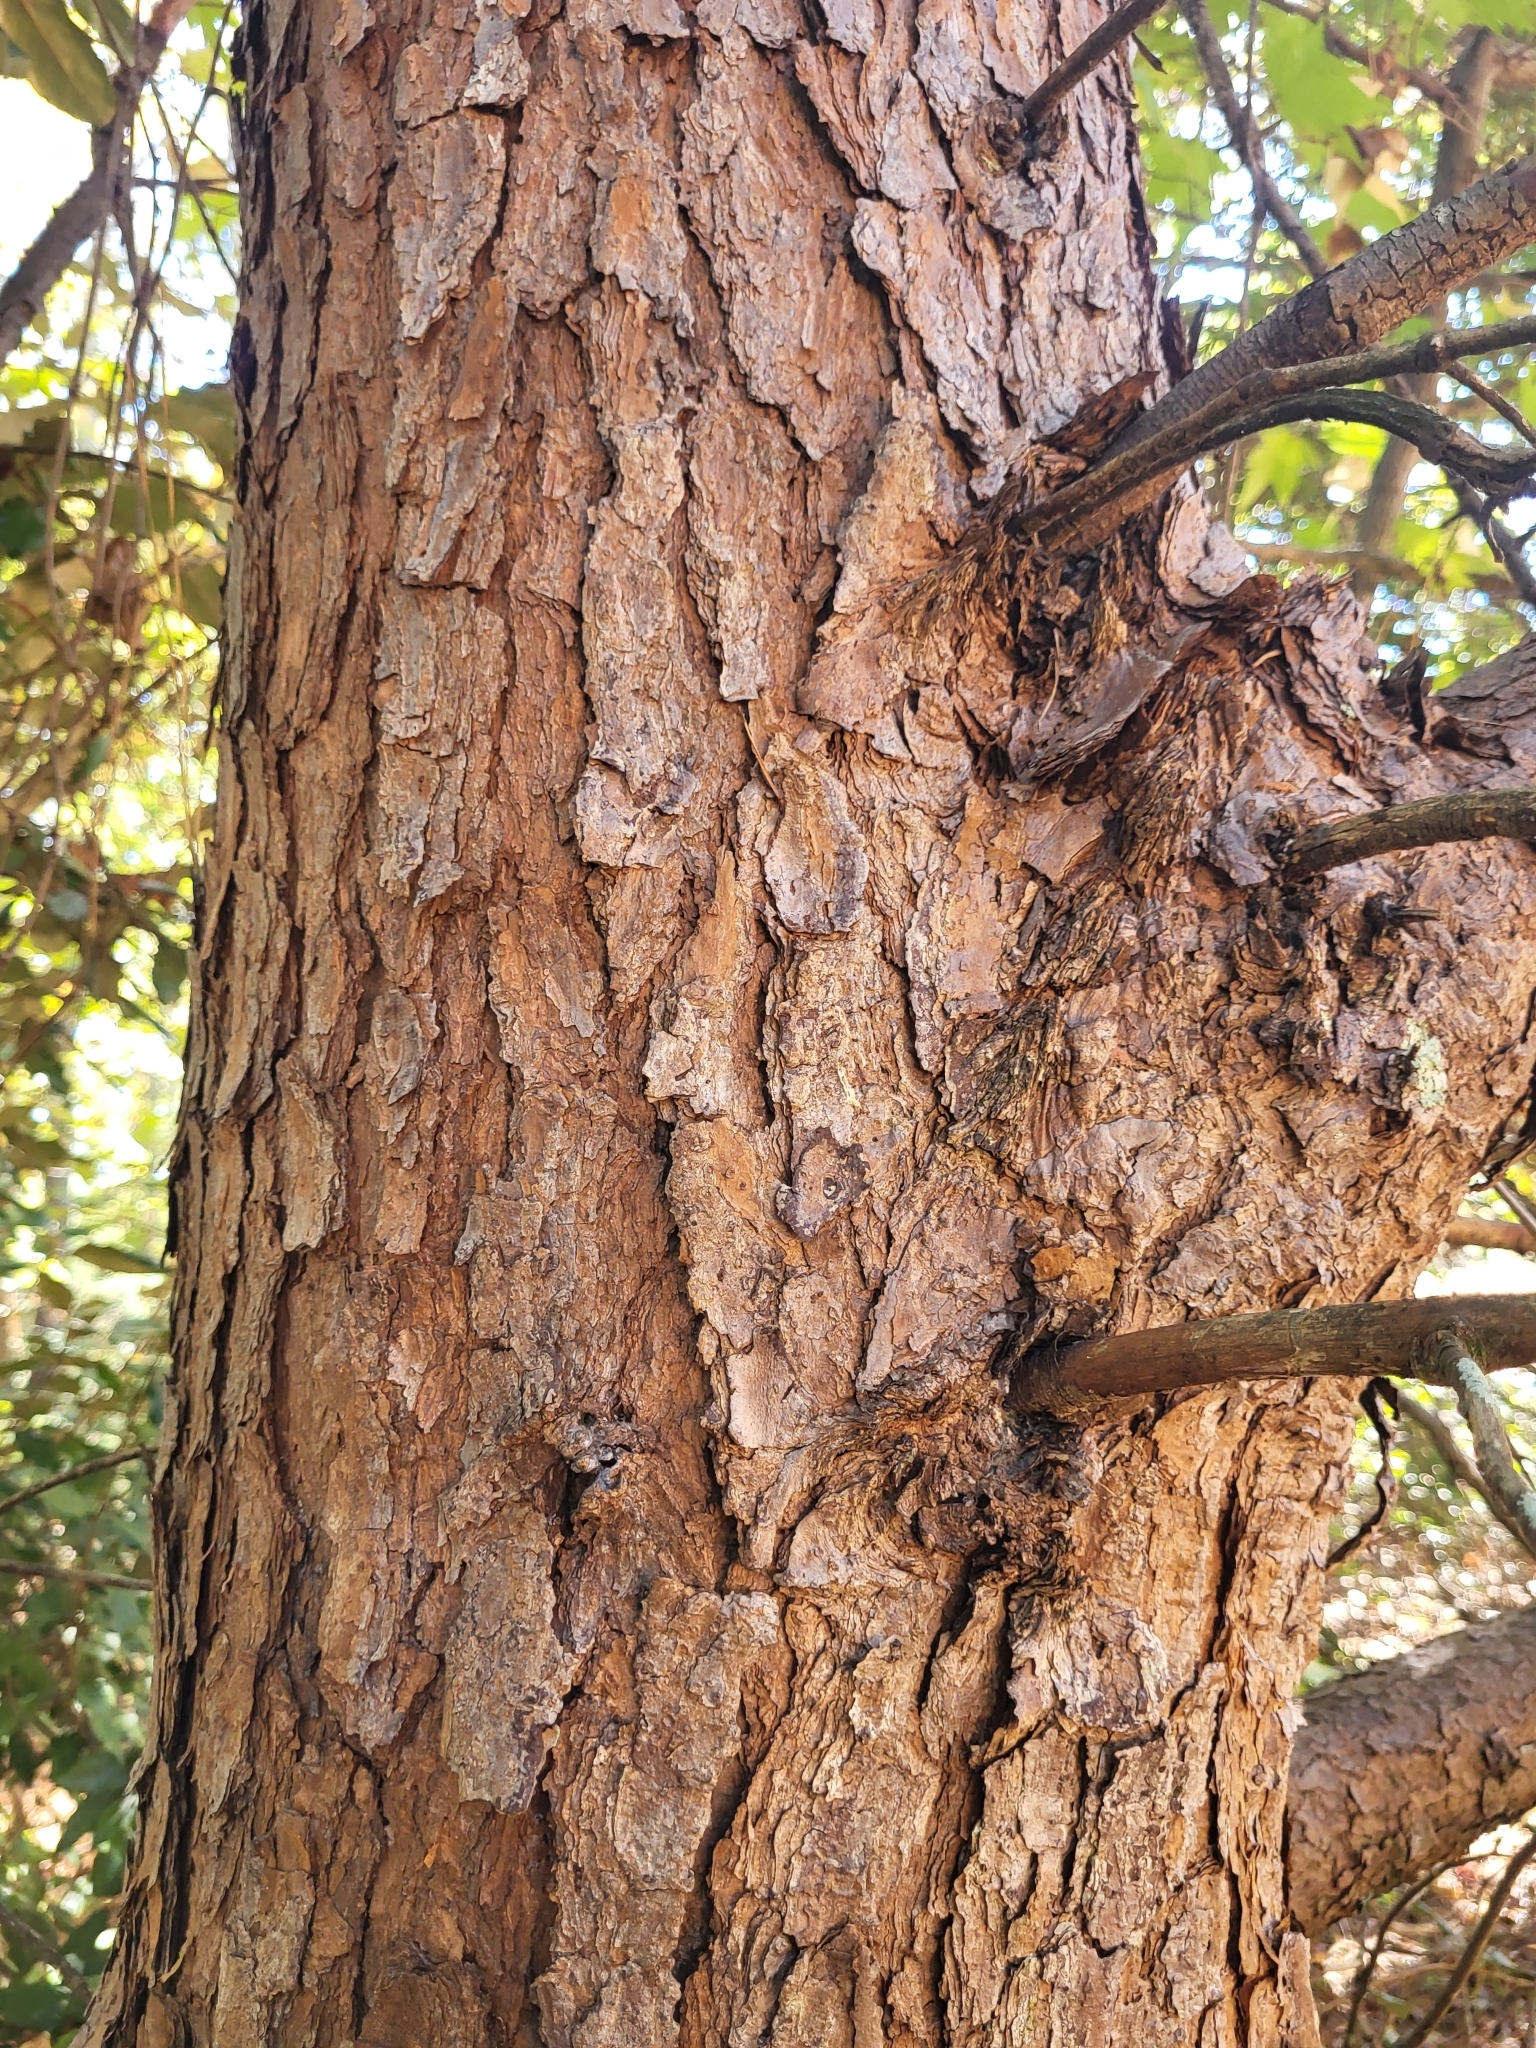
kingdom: Plantae
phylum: Tracheophyta
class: Pinopsida
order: Pinales
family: Pinaceae
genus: Pinus
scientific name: Pinus virginiana
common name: Scrub pine
